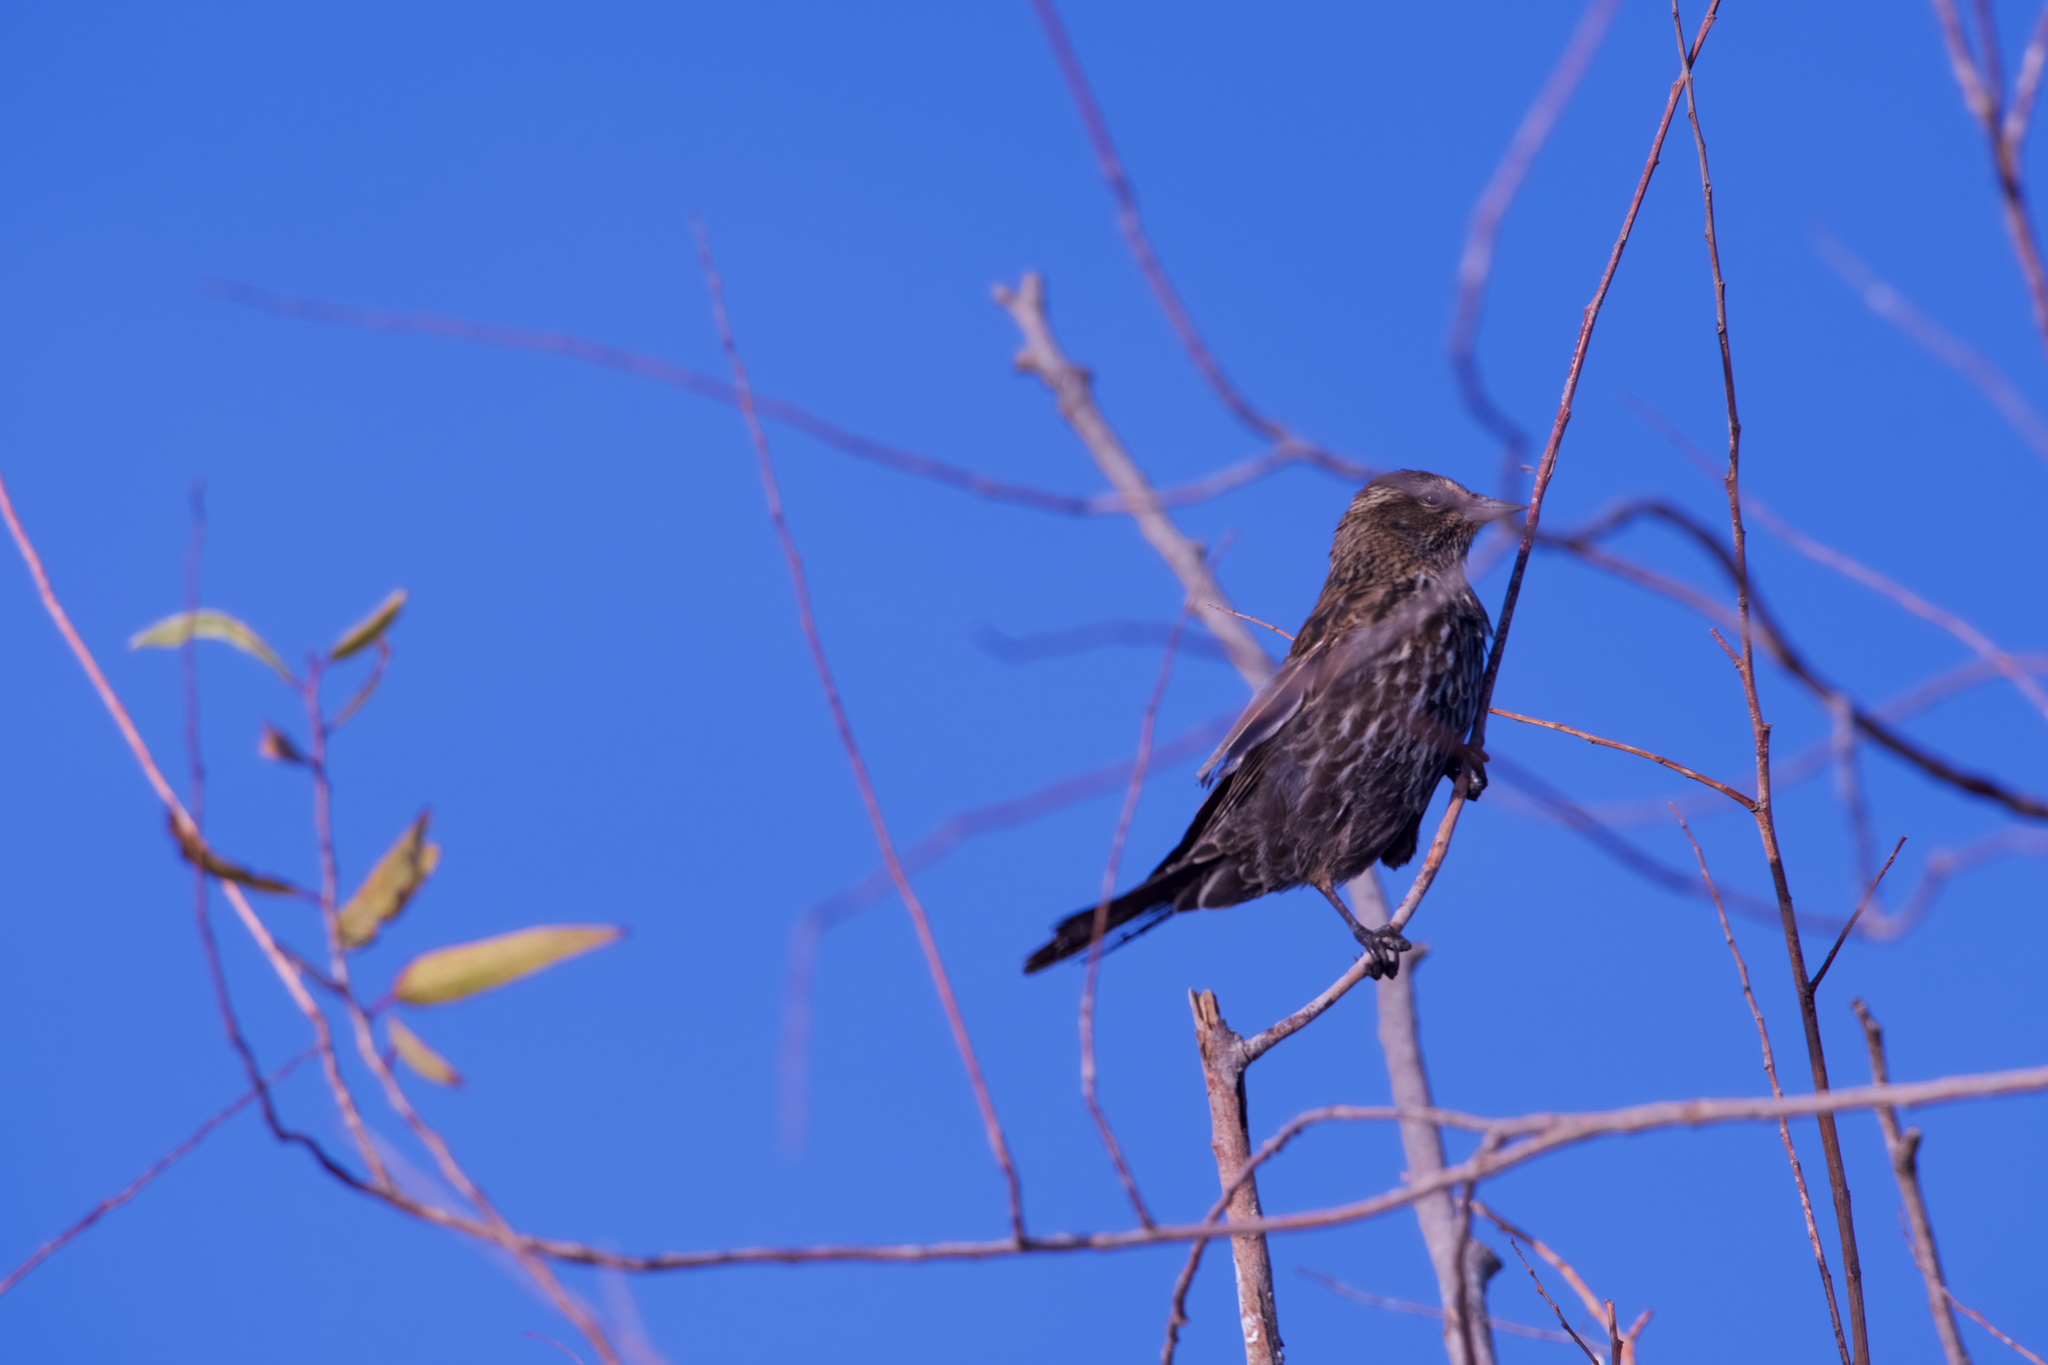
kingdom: Animalia
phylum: Chordata
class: Aves
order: Passeriformes
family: Icteridae
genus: Agelaius
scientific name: Agelaius phoeniceus
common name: Red-winged blackbird
